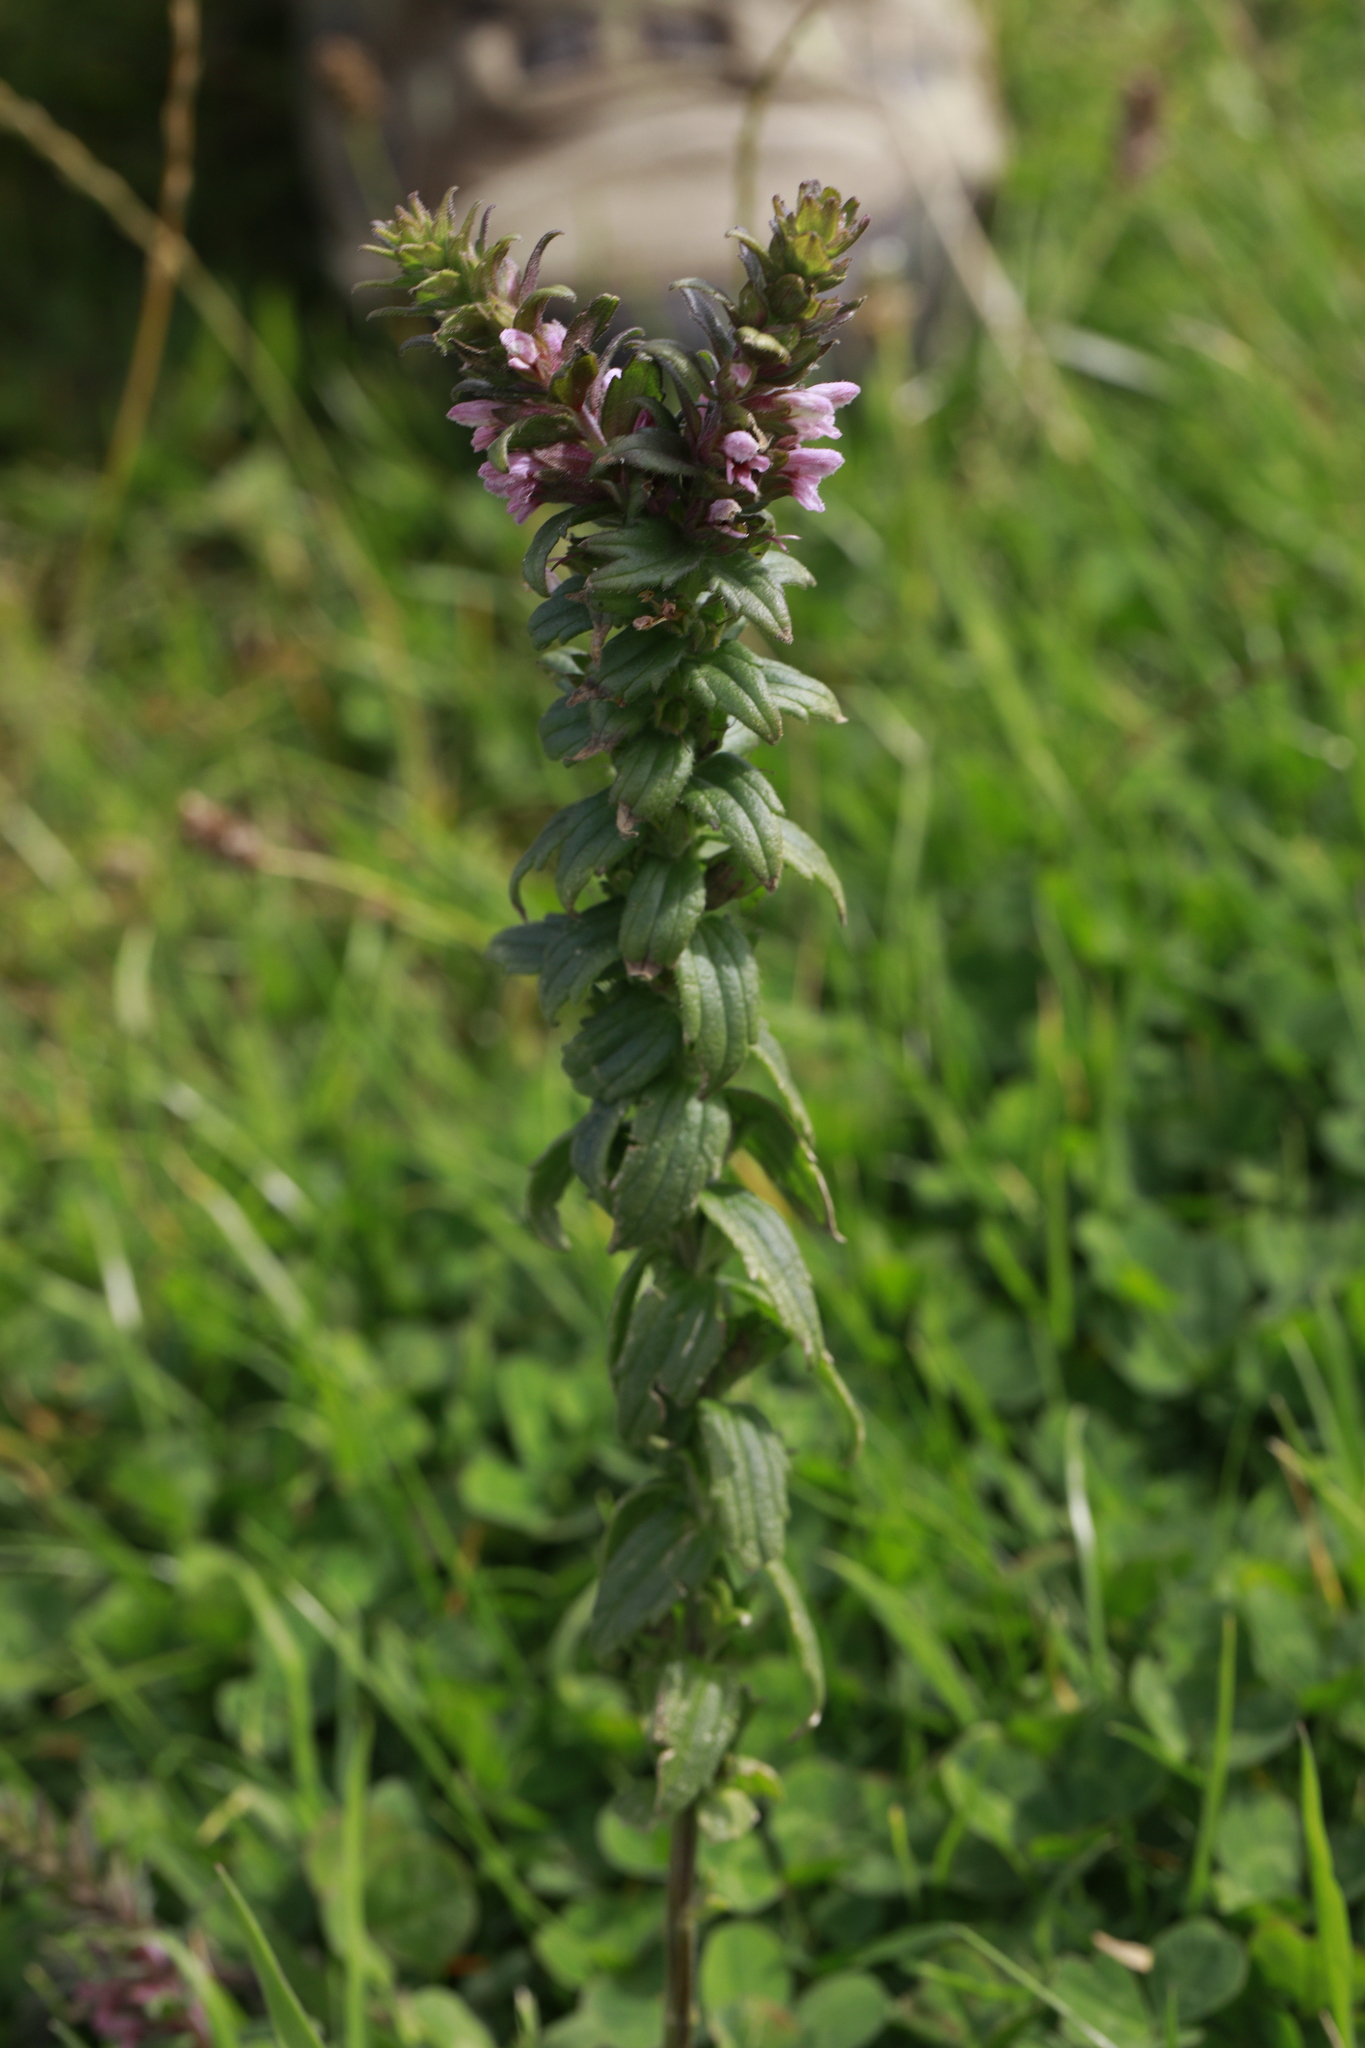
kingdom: Plantae
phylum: Tracheophyta
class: Magnoliopsida
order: Lamiales
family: Orobanchaceae
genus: Odontites
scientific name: Odontites vernus
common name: Red bartsia
